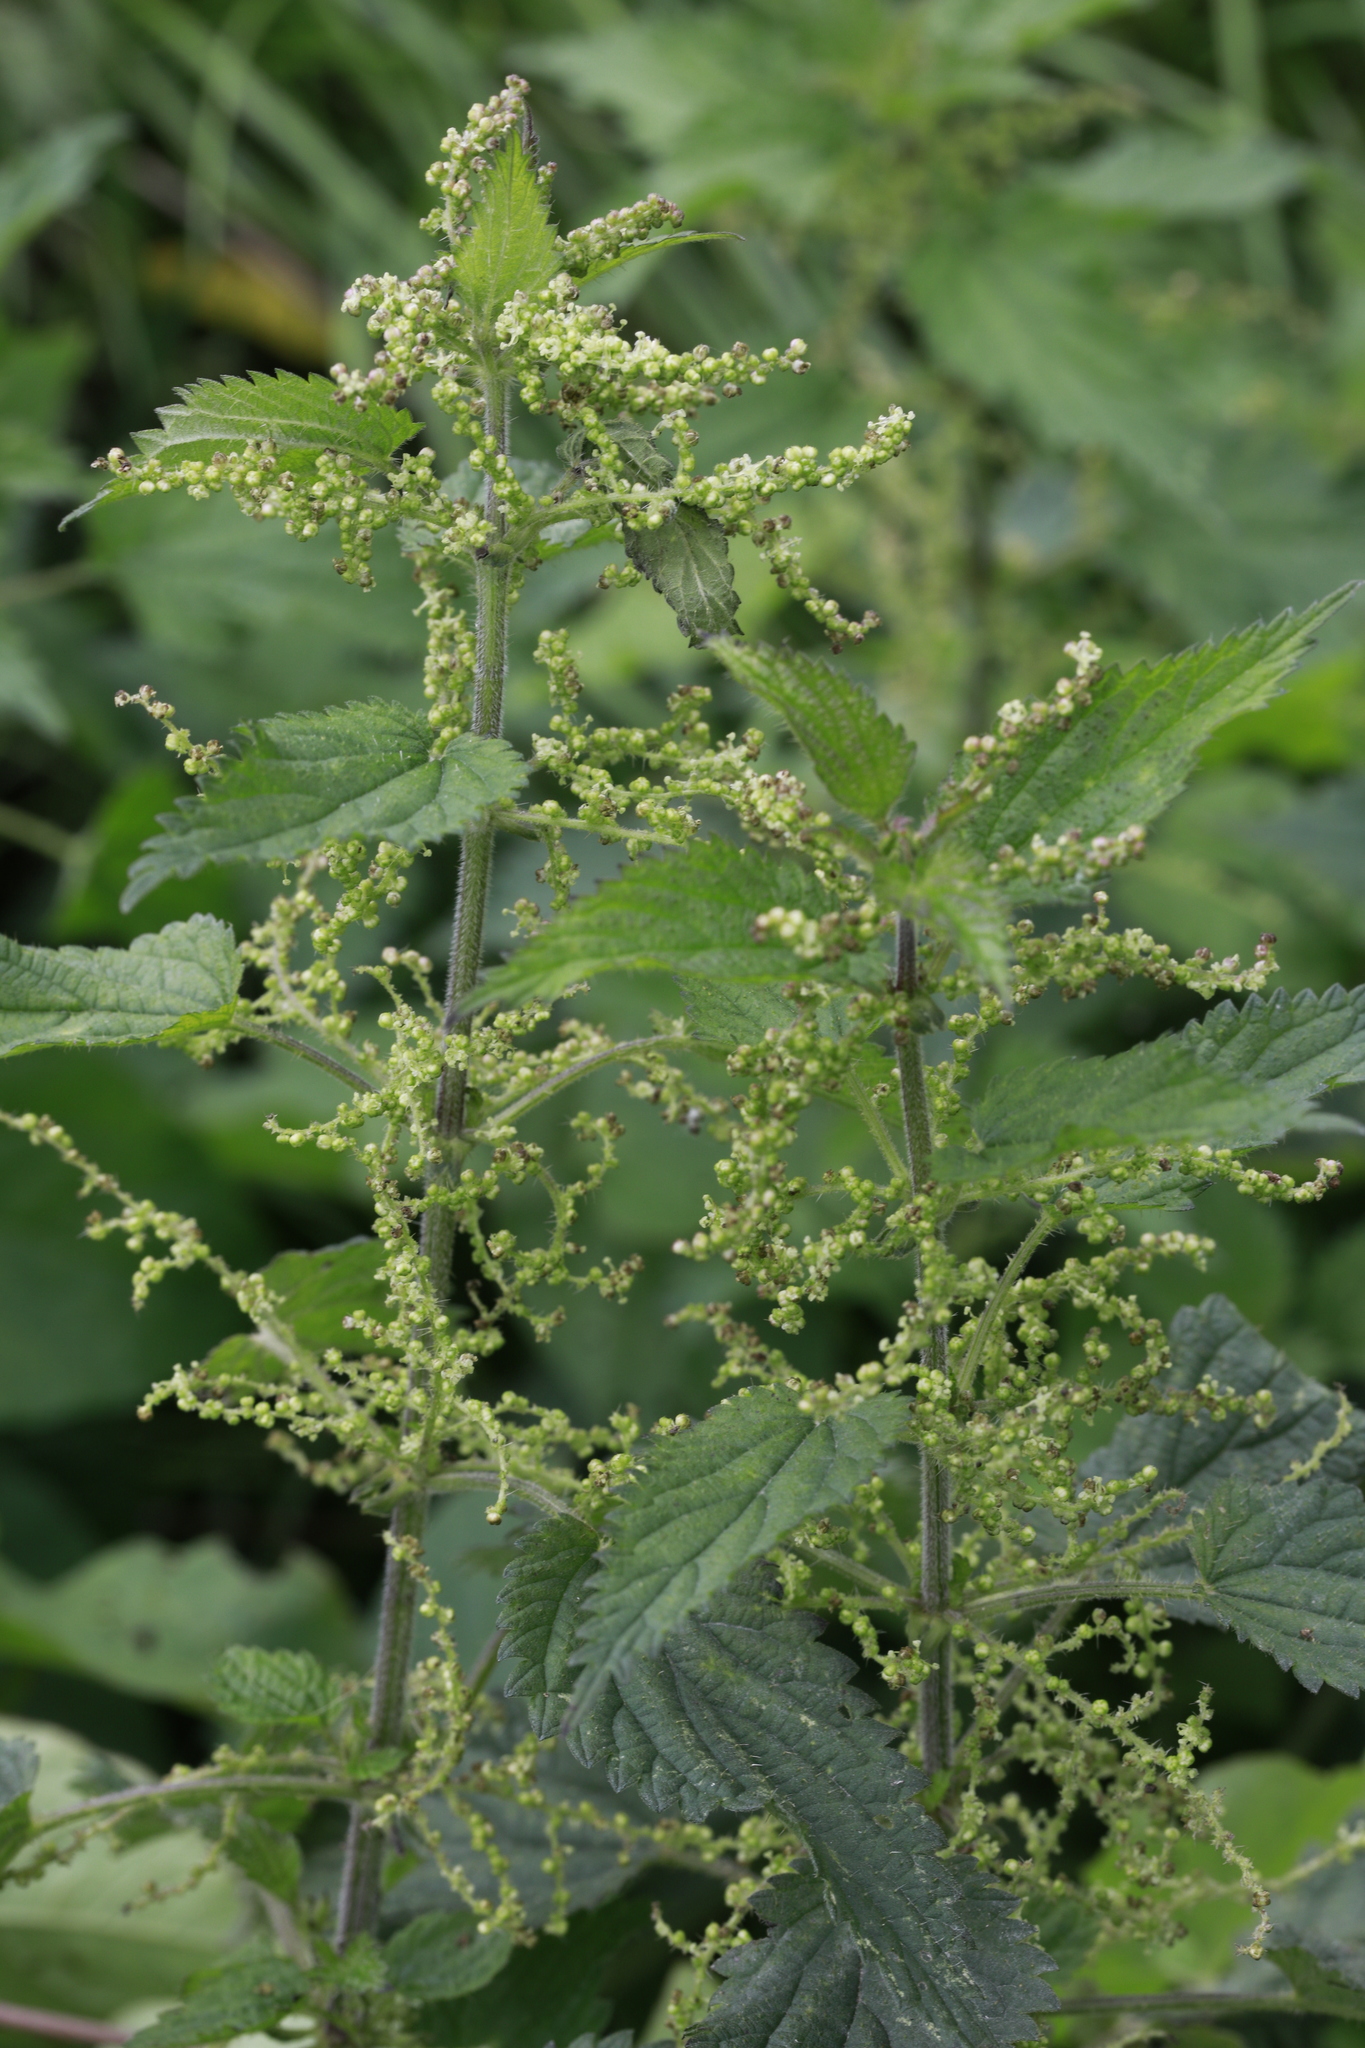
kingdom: Plantae
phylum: Tracheophyta
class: Magnoliopsida
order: Rosales
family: Urticaceae
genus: Urtica
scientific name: Urtica dioica
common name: Common nettle
